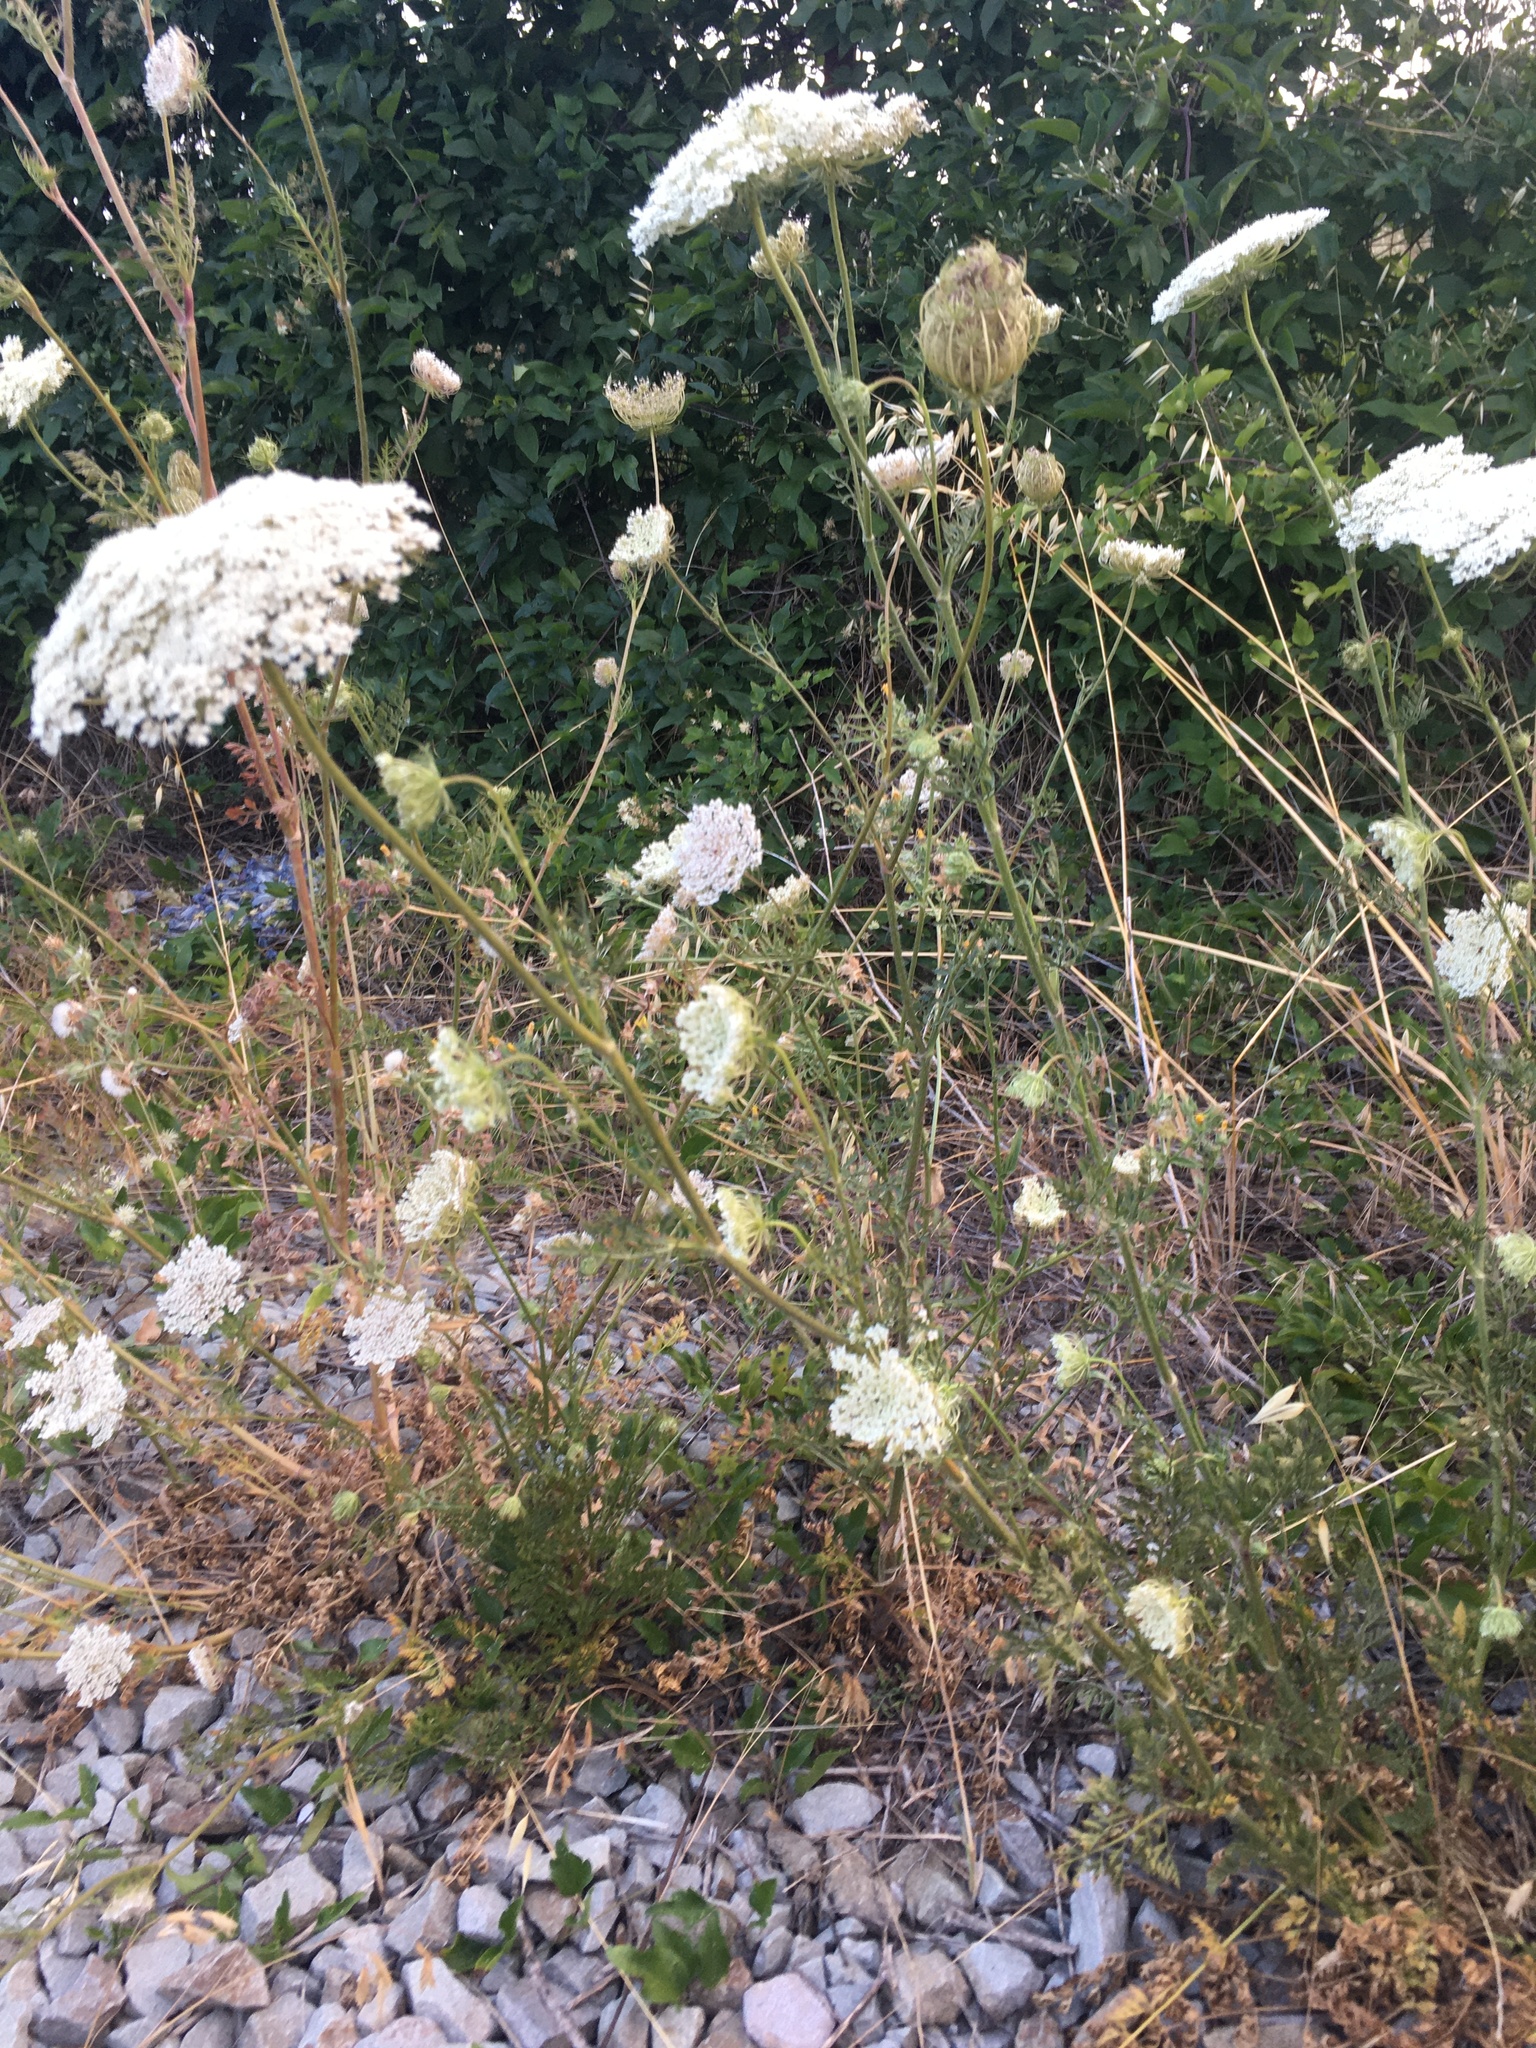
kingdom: Plantae
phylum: Tracheophyta
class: Magnoliopsida
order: Apiales
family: Apiaceae
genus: Daucus
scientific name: Daucus carota
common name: Wild carrot
